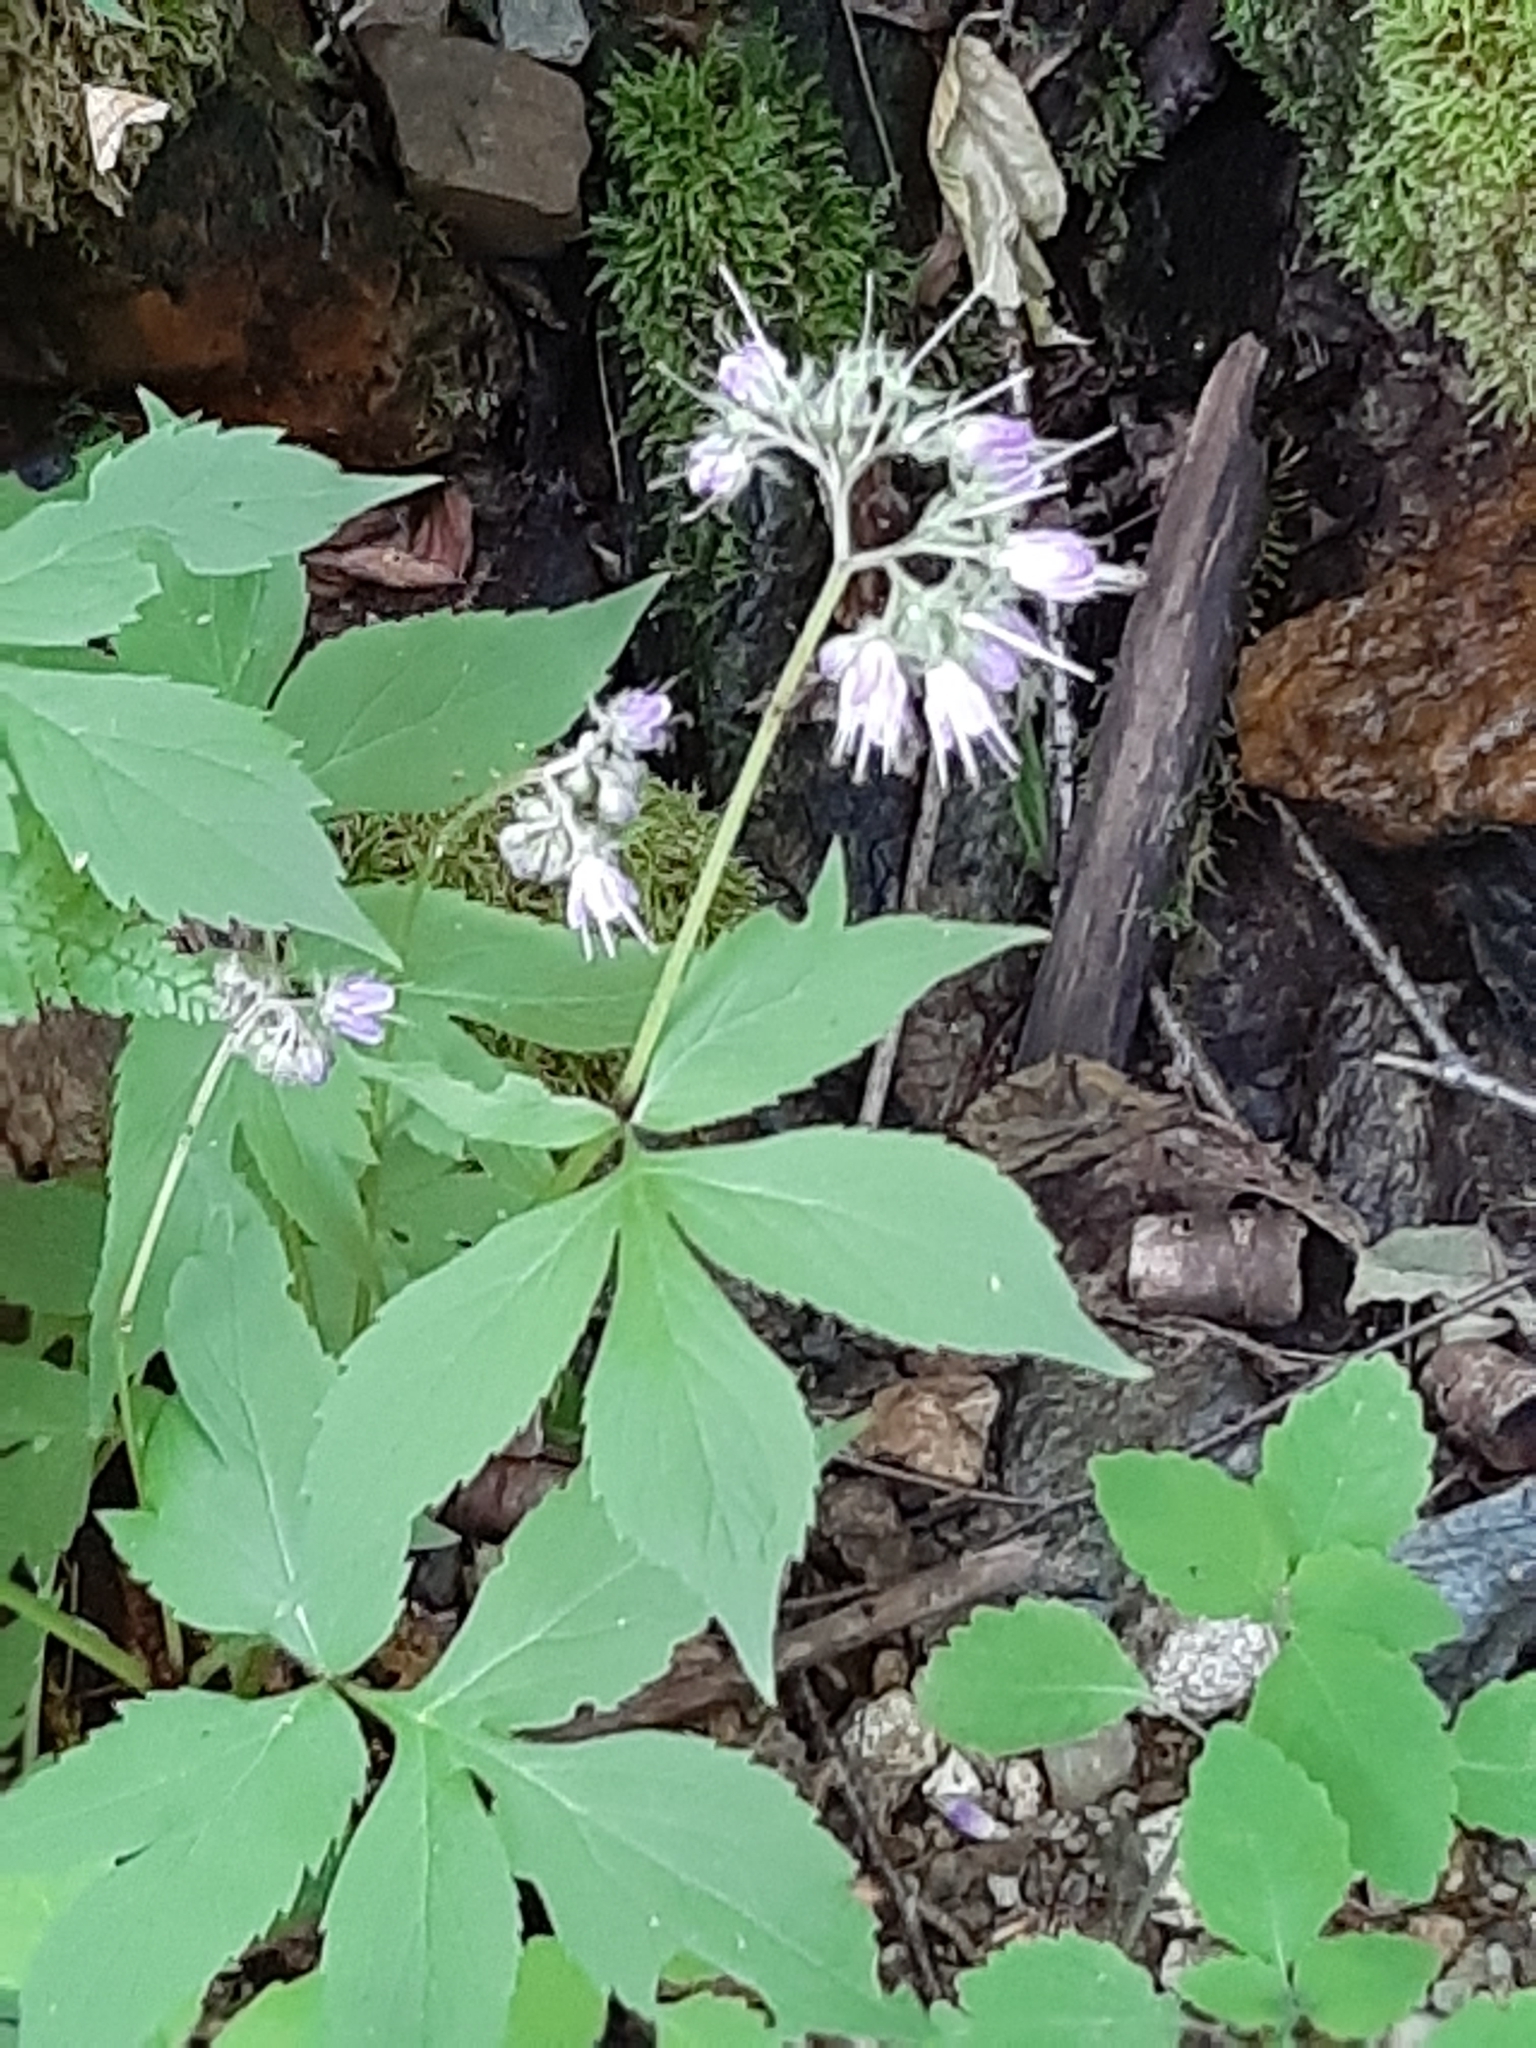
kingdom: Plantae
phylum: Tracheophyta
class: Magnoliopsida
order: Boraginales
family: Hydrophyllaceae
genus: Hydrophyllum
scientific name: Hydrophyllum virginianum
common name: Virginia waterleaf
